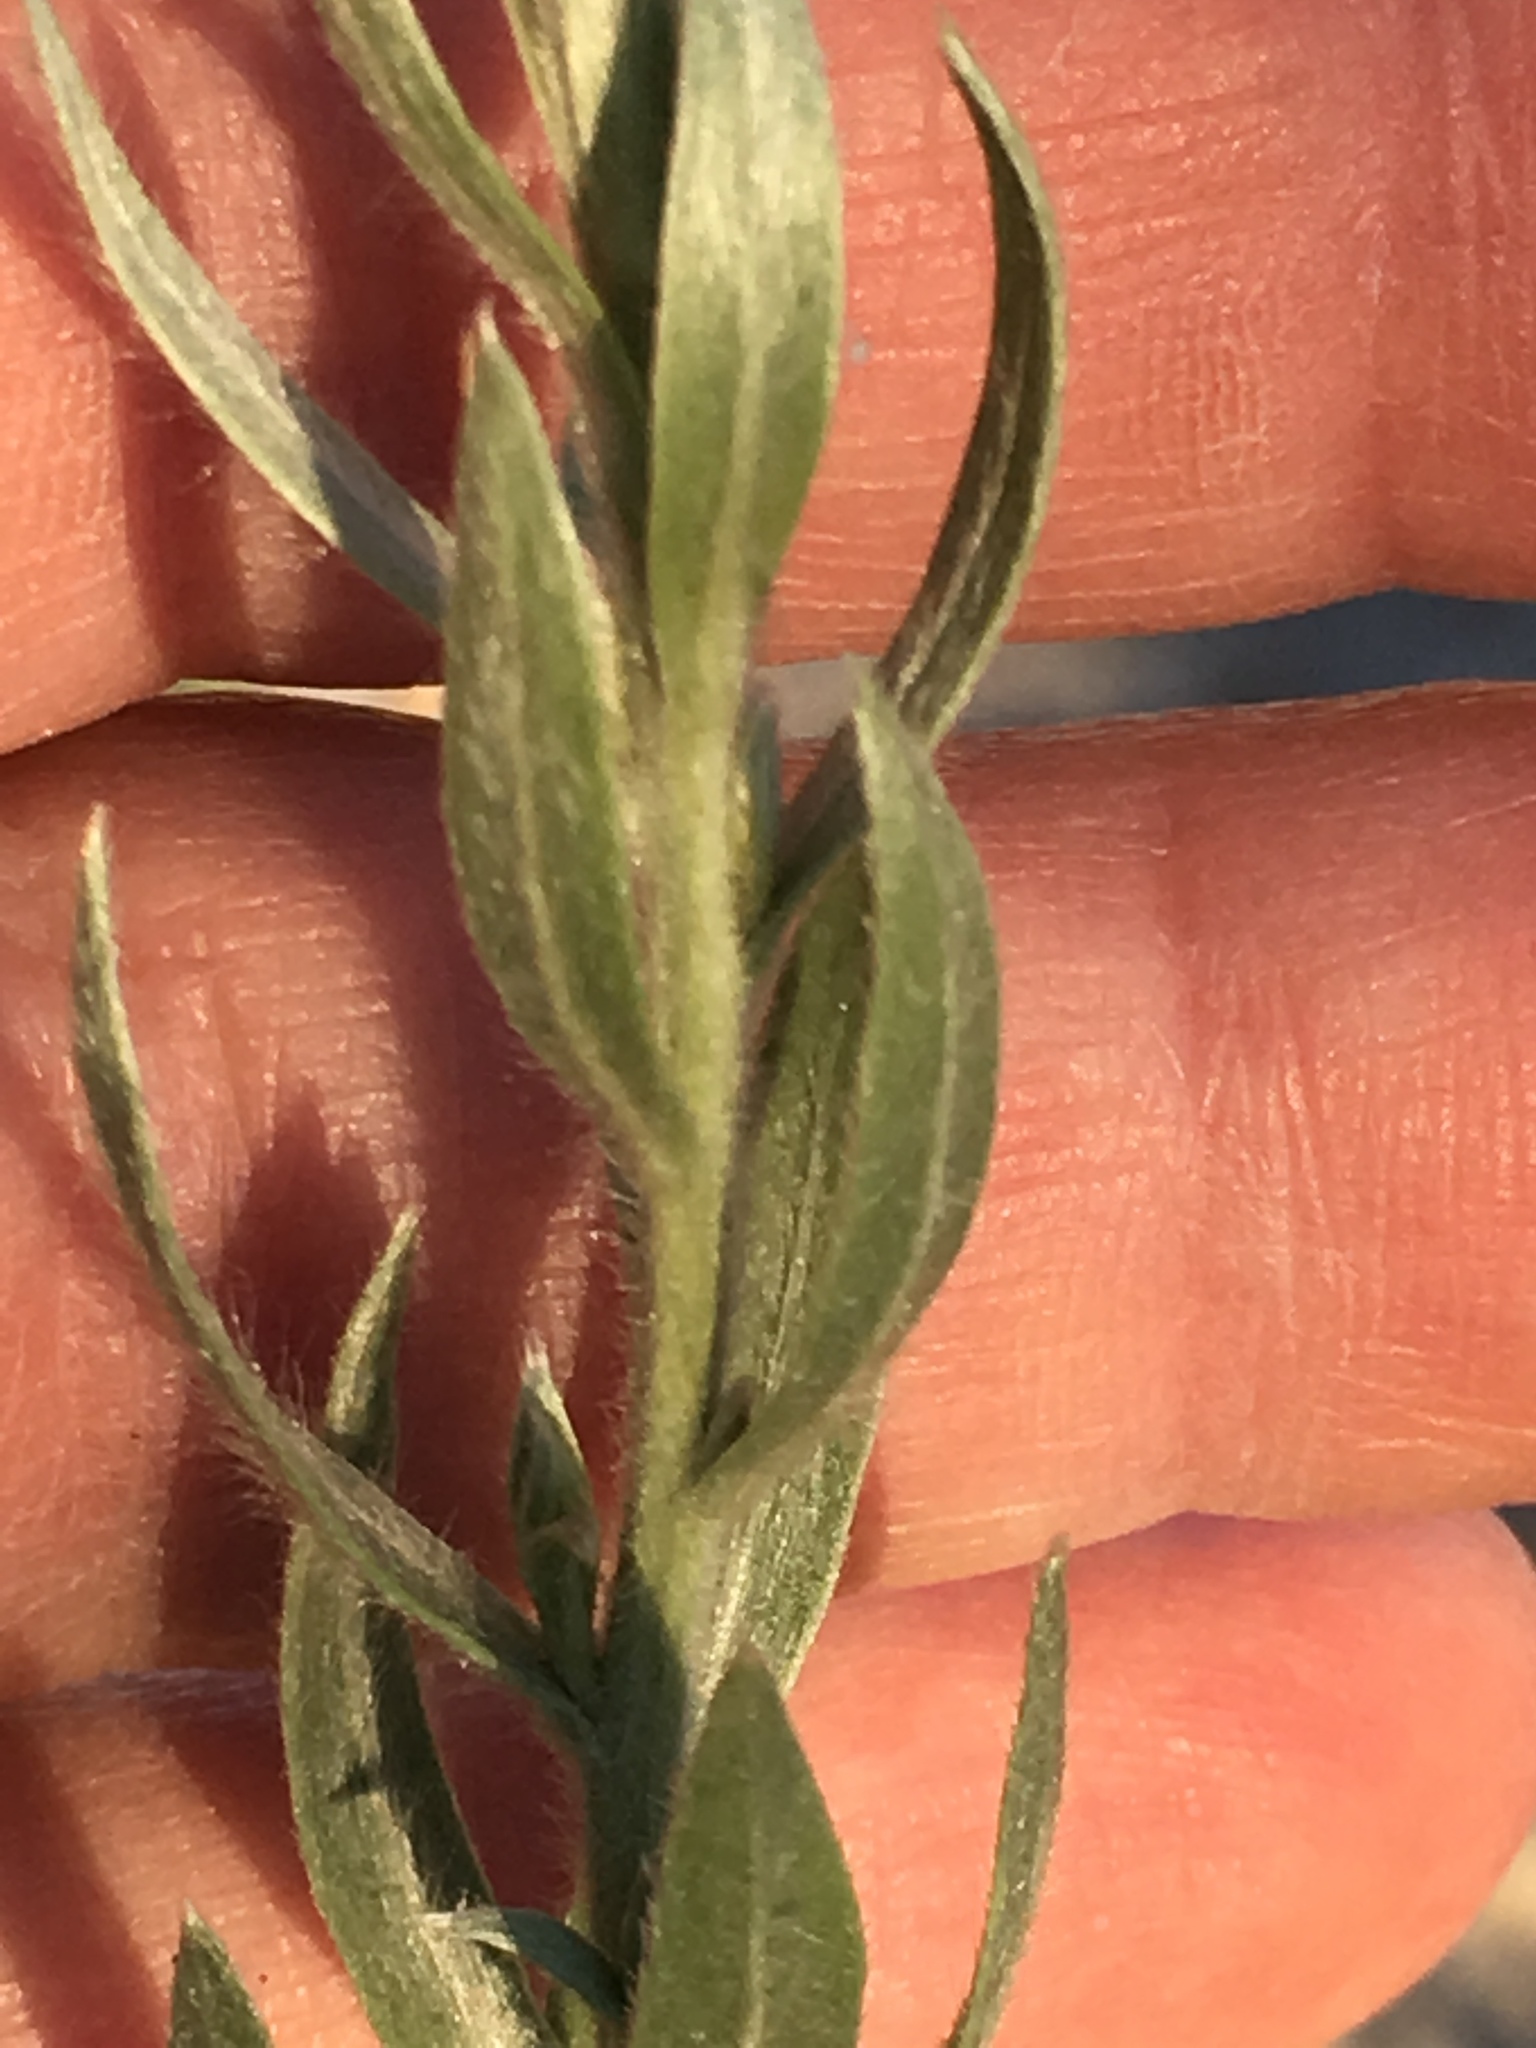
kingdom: Plantae
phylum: Tracheophyta
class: Magnoliopsida
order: Asterales
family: Asteraceae
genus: Pluchea
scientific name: Pluchea sericea
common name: Arrow-weed
